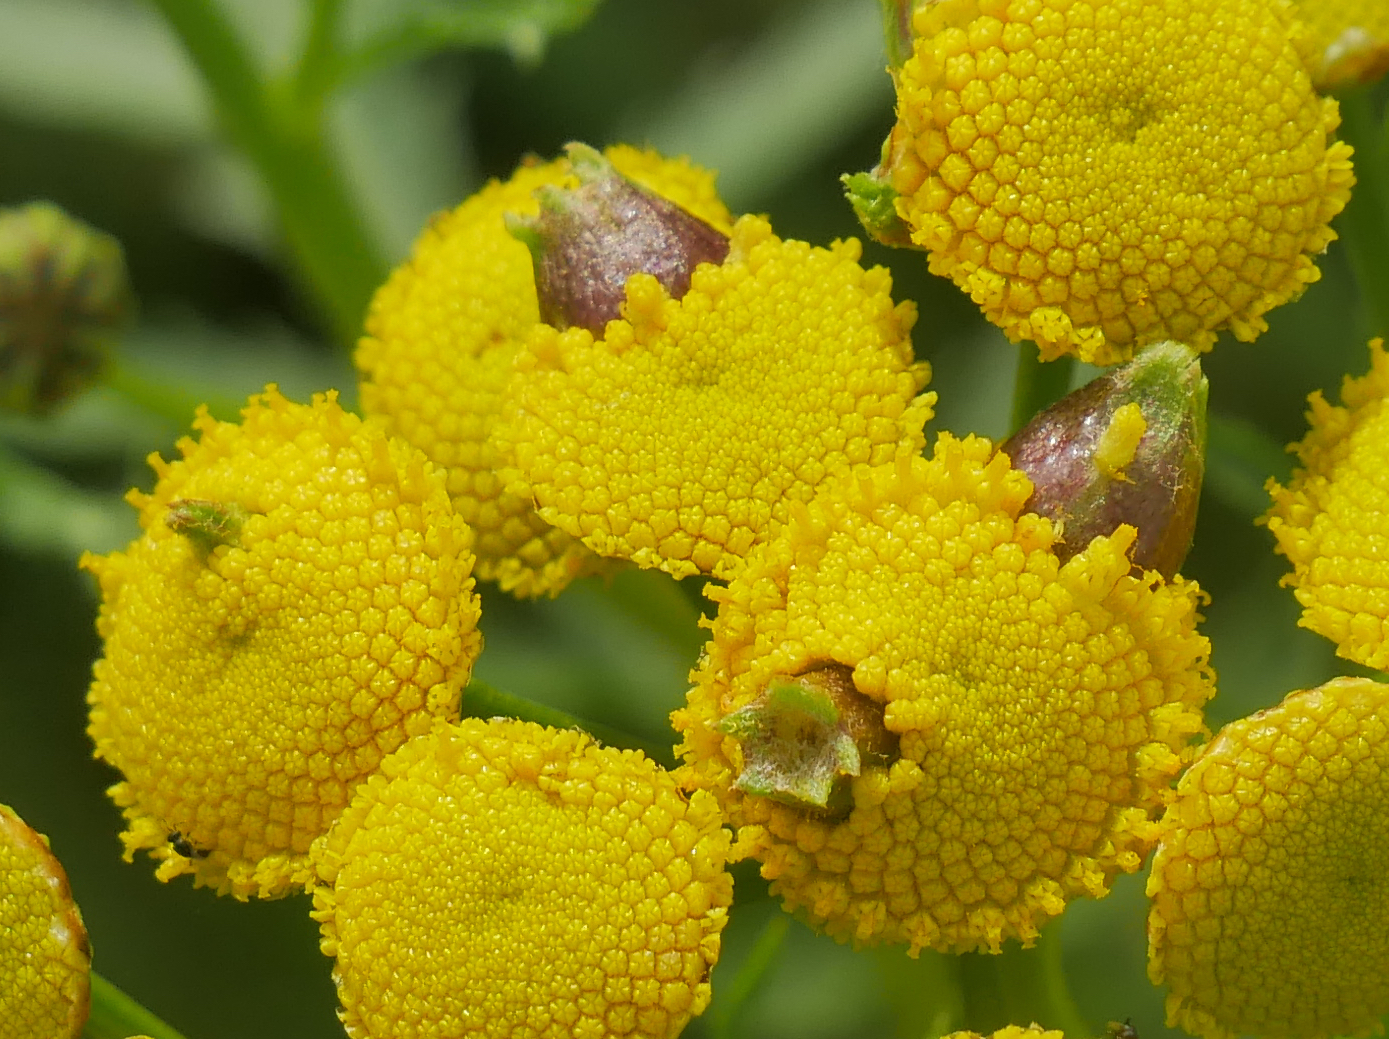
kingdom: Animalia
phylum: Arthropoda
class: Insecta
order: Diptera
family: Cecidomyiidae
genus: Rhopalomyia
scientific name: Rhopalomyia tanaceticolus
